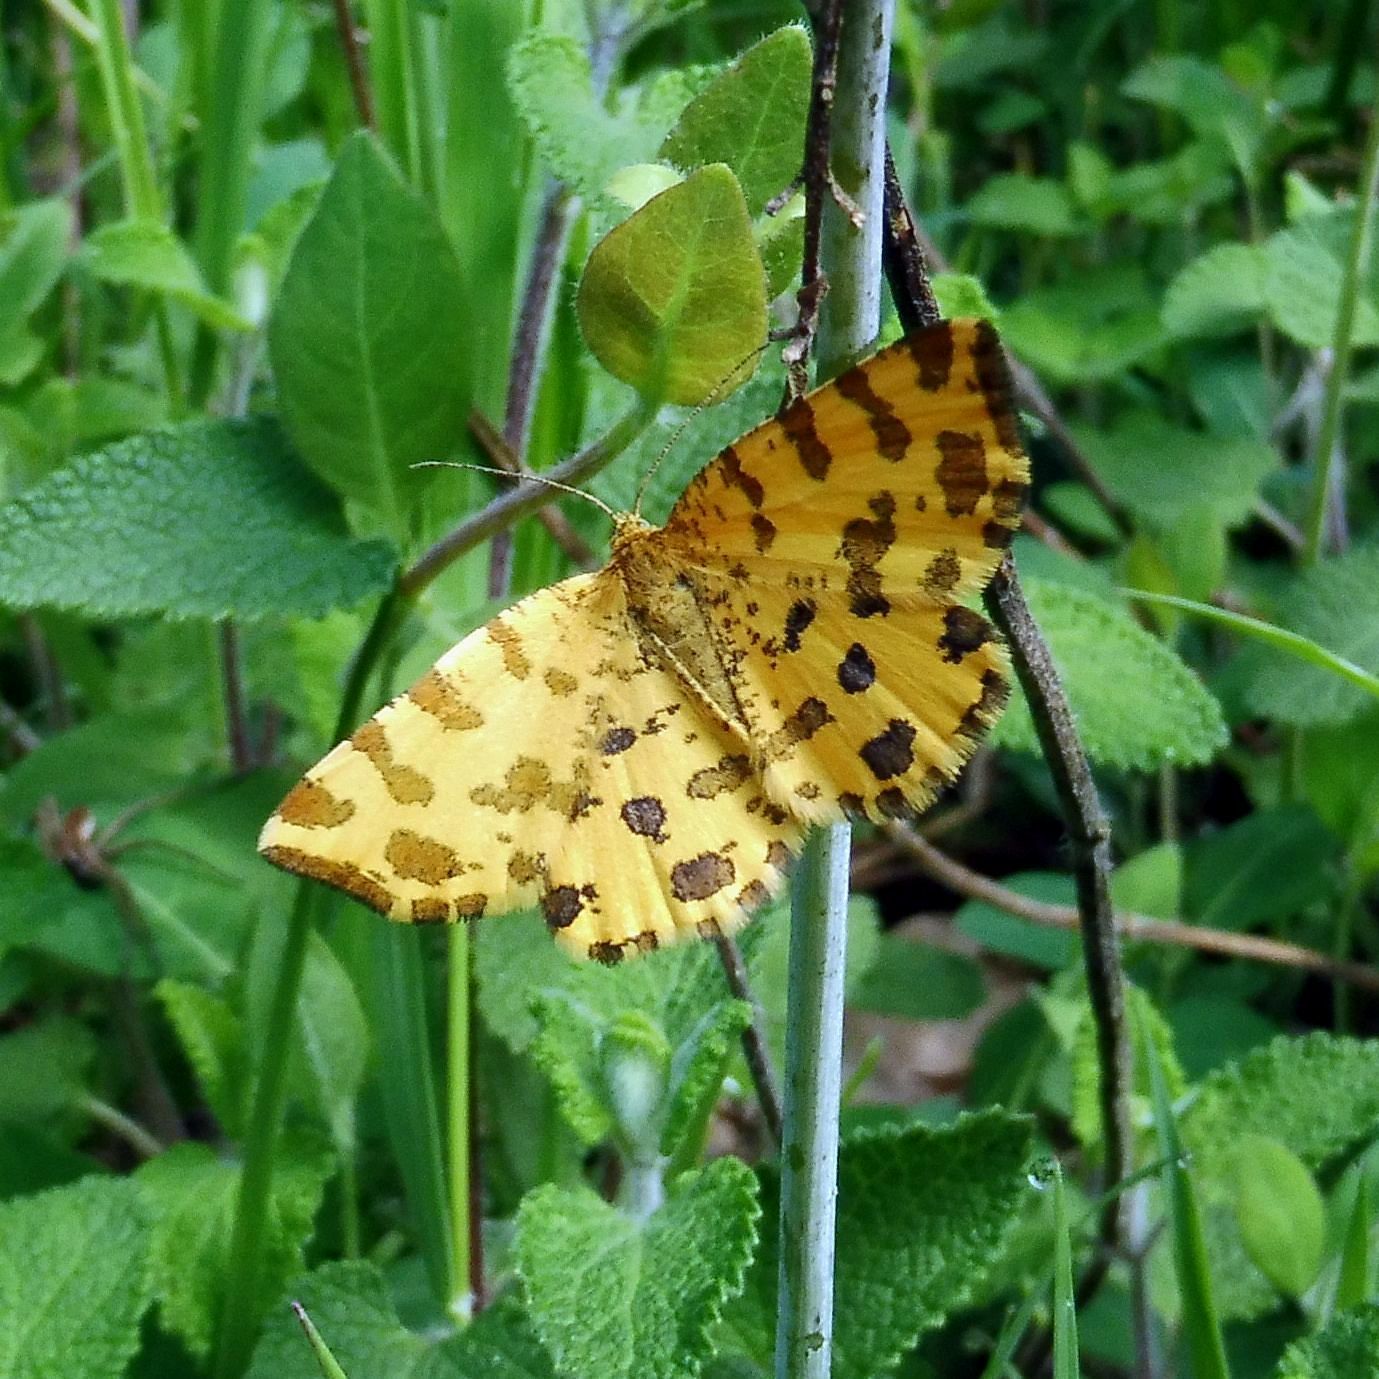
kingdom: Animalia
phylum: Arthropoda
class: Insecta
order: Lepidoptera
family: Geometridae
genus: Pseudopanthera
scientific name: Pseudopanthera macularia
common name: Speckled yellow
